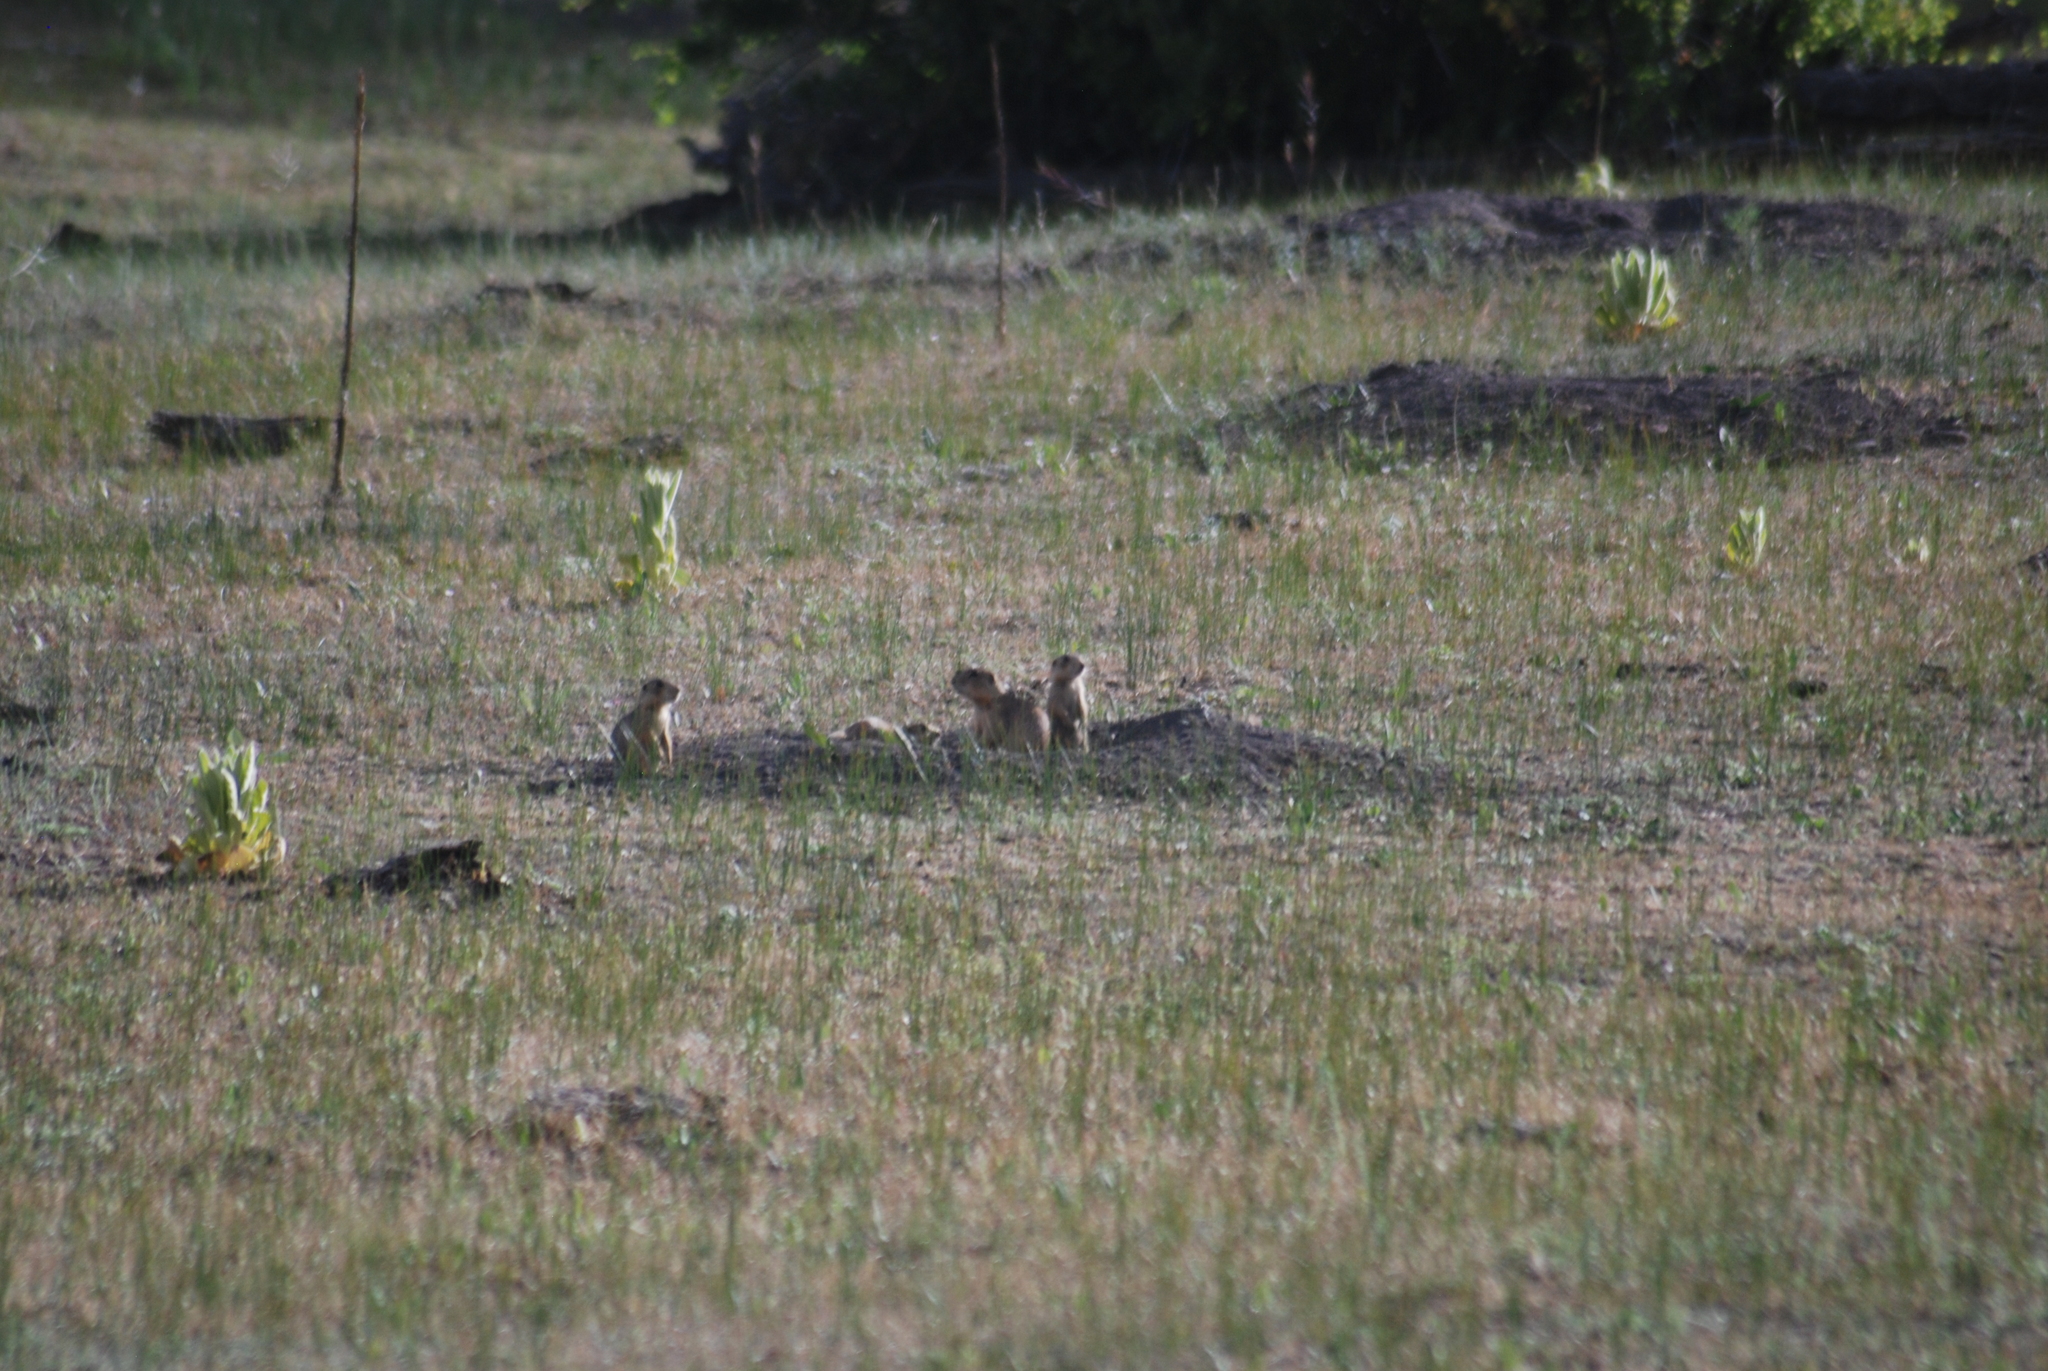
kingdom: Animalia
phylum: Chordata
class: Mammalia
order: Rodentia
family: Sciuridae
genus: Cynomys
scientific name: Cynomys gunnisoni
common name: Gunnison's prairie dog
